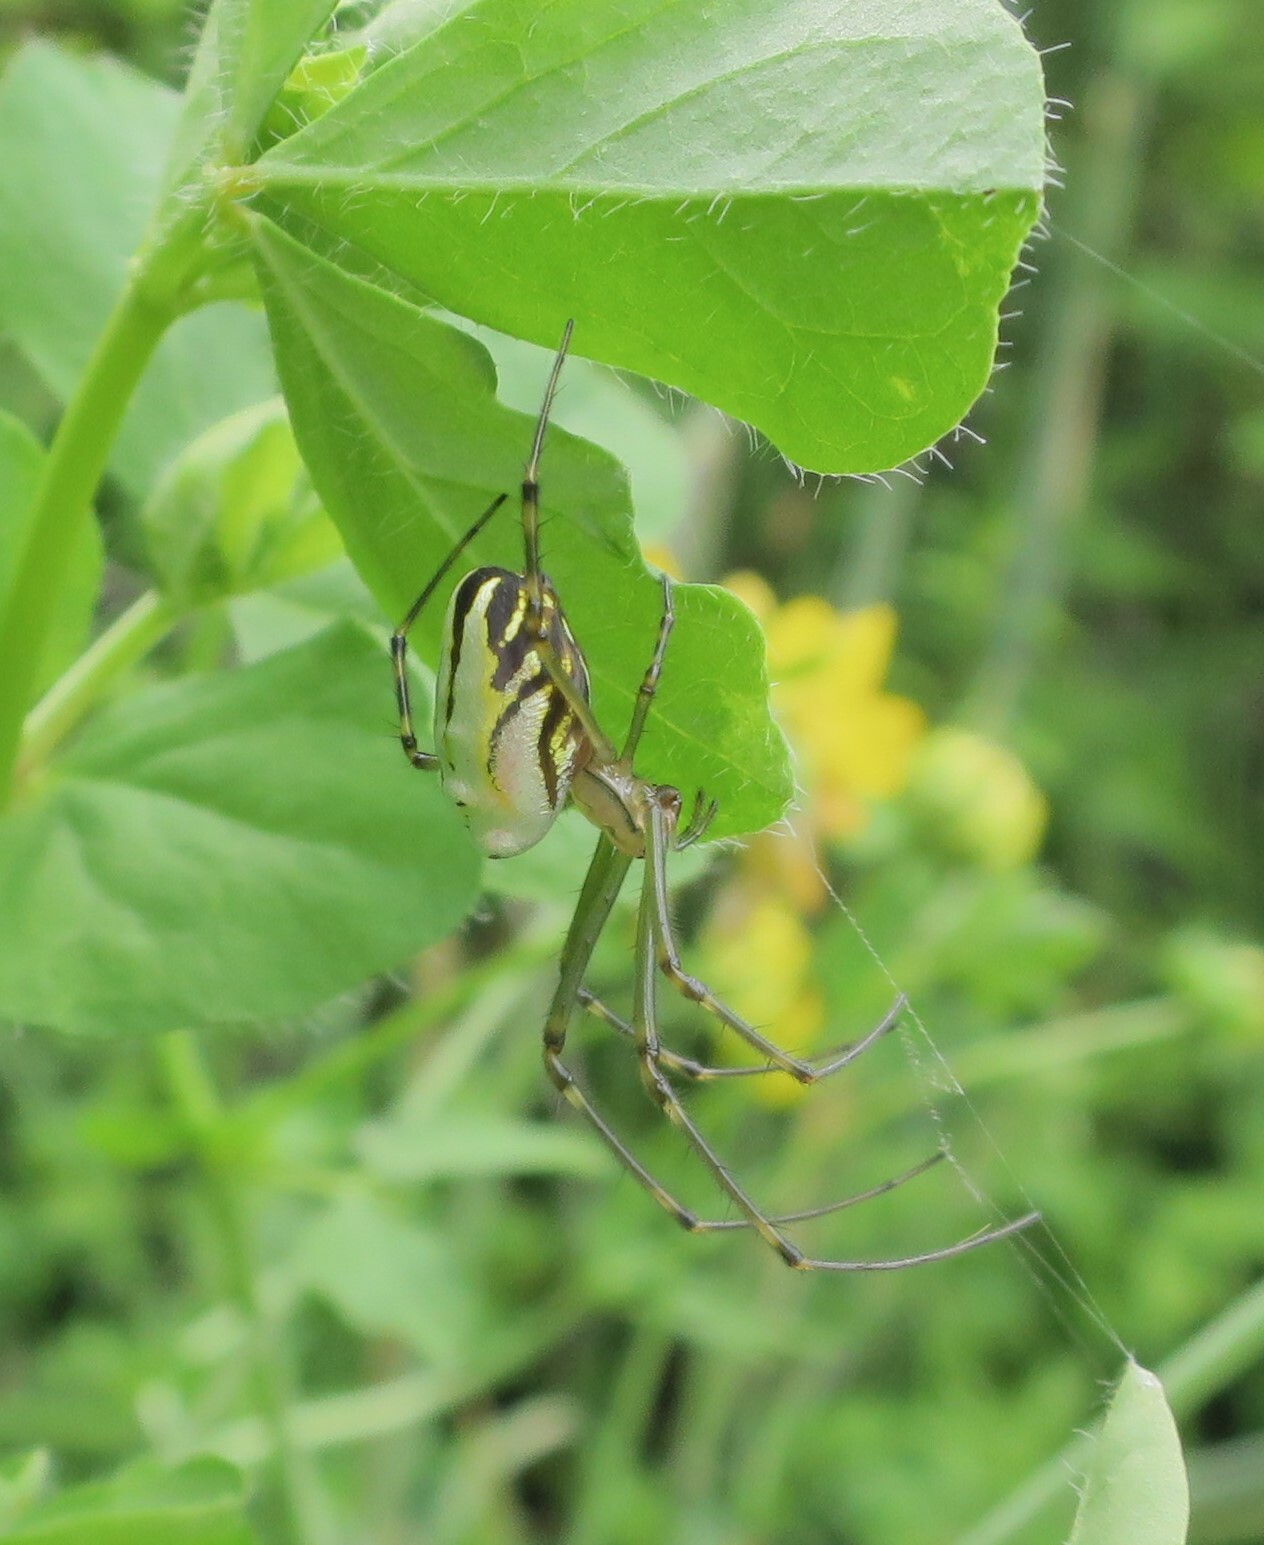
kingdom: Animalia
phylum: Arthropoda
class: Arachnida
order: Araneae
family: Tetragnathidae
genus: Leucauge
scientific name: Leucauge dromedaria
